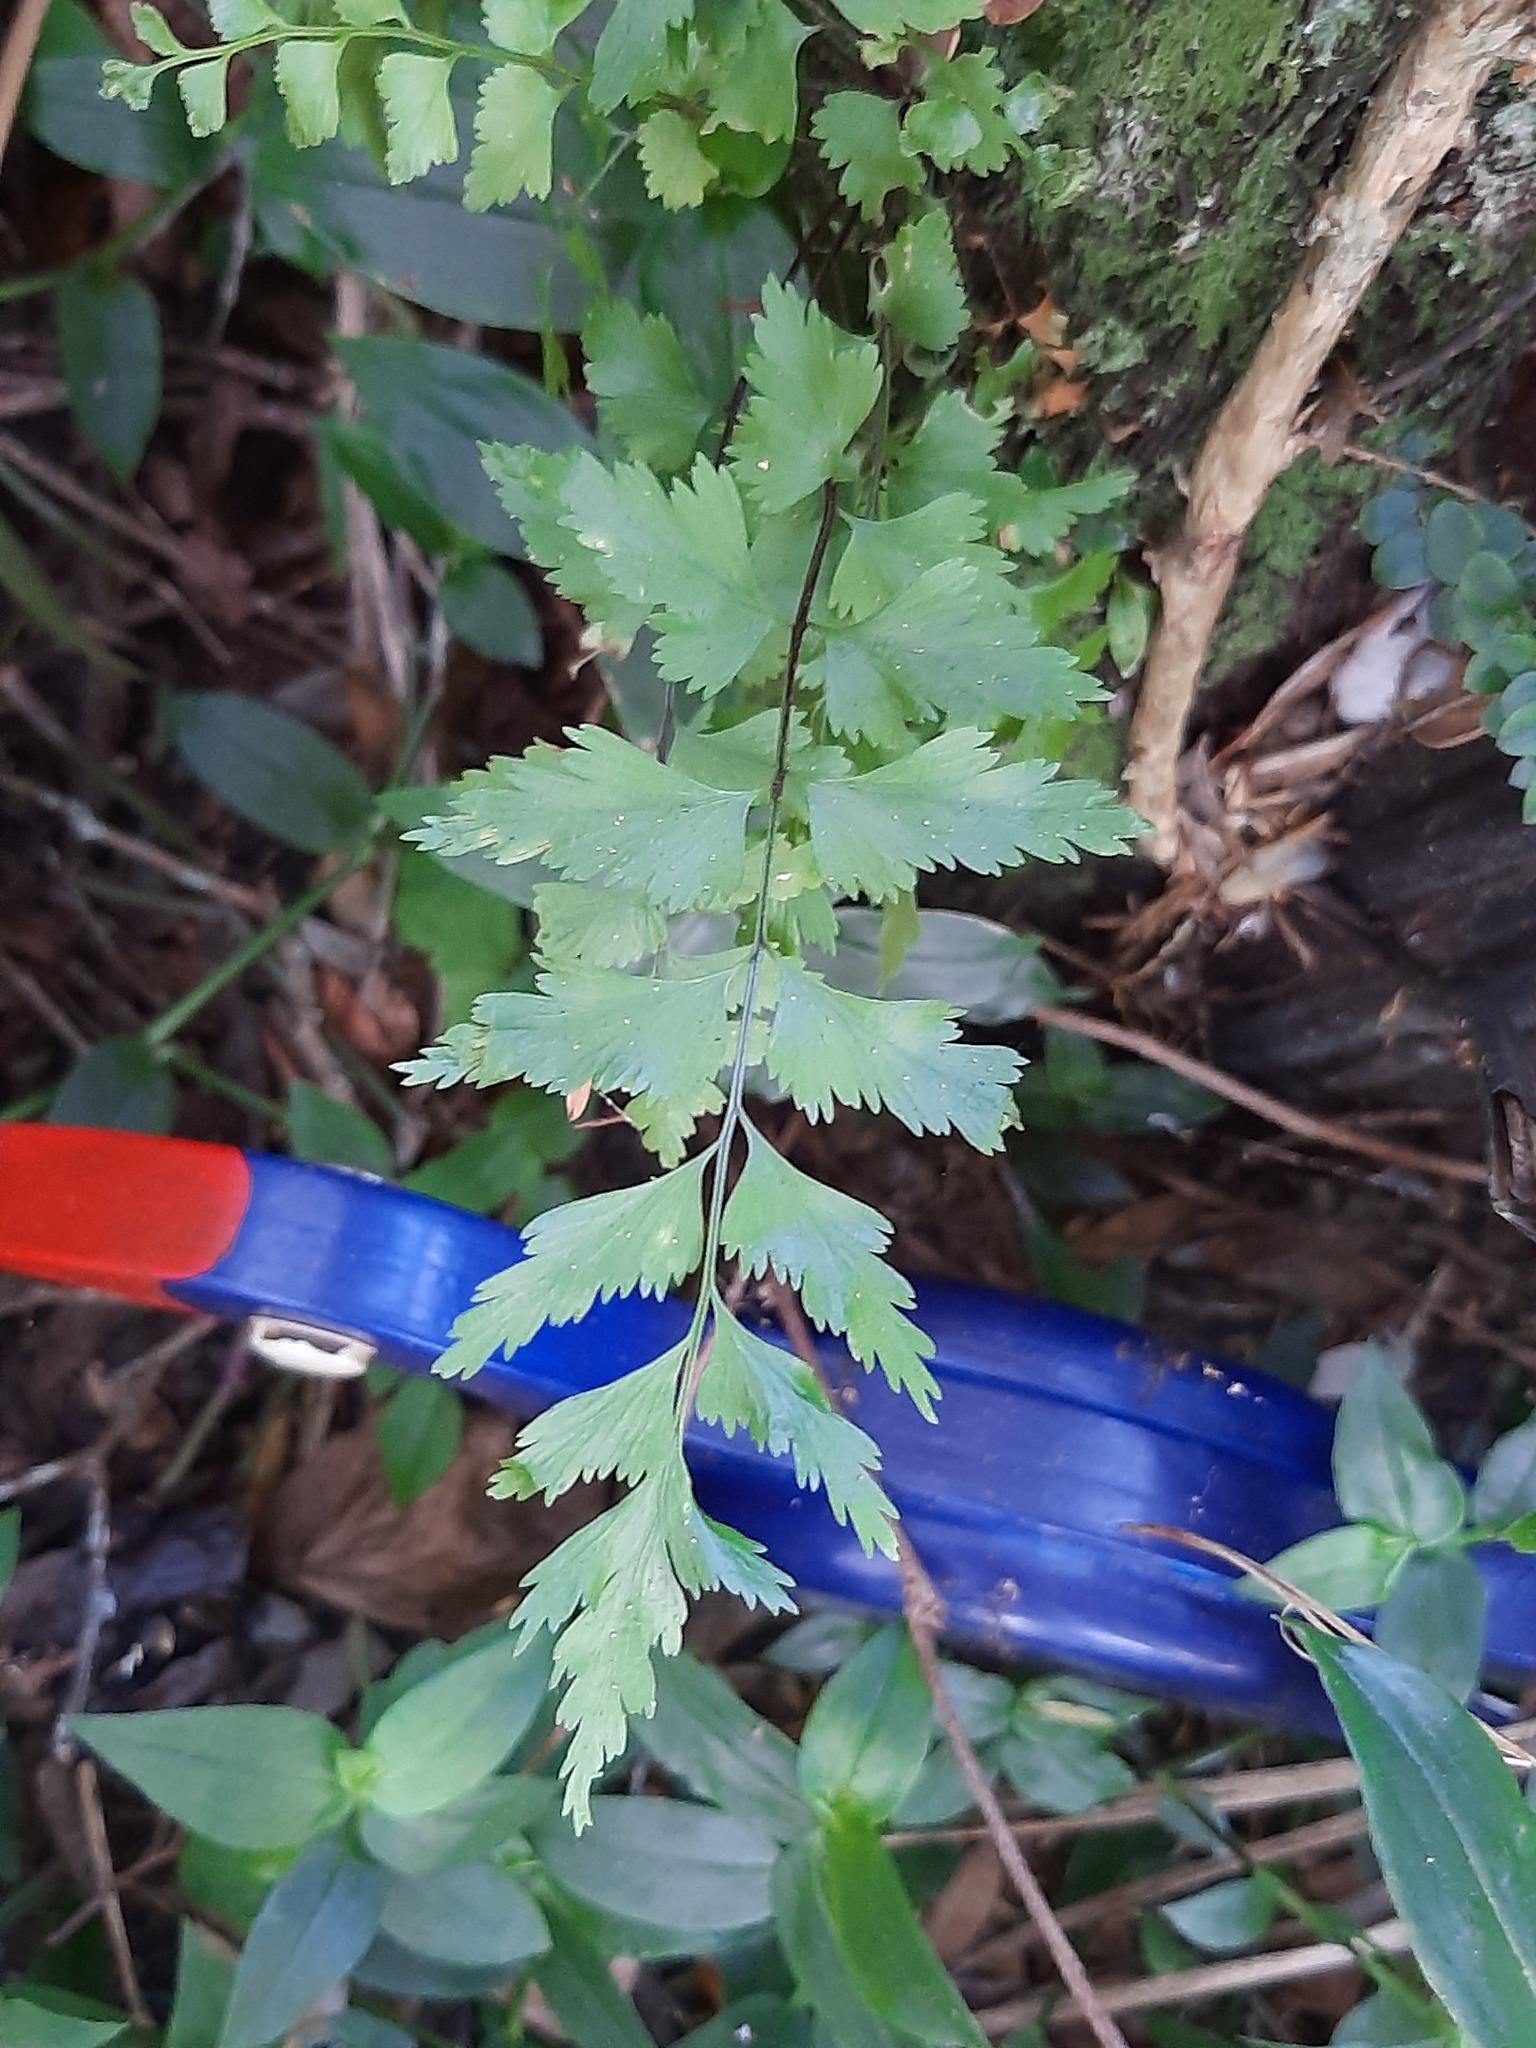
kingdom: Plantae
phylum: Tracheophyta
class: Polypodiopsida
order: Polypodiales
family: Aspleniaceae
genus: Asplenium
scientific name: Asplenium polyodon
